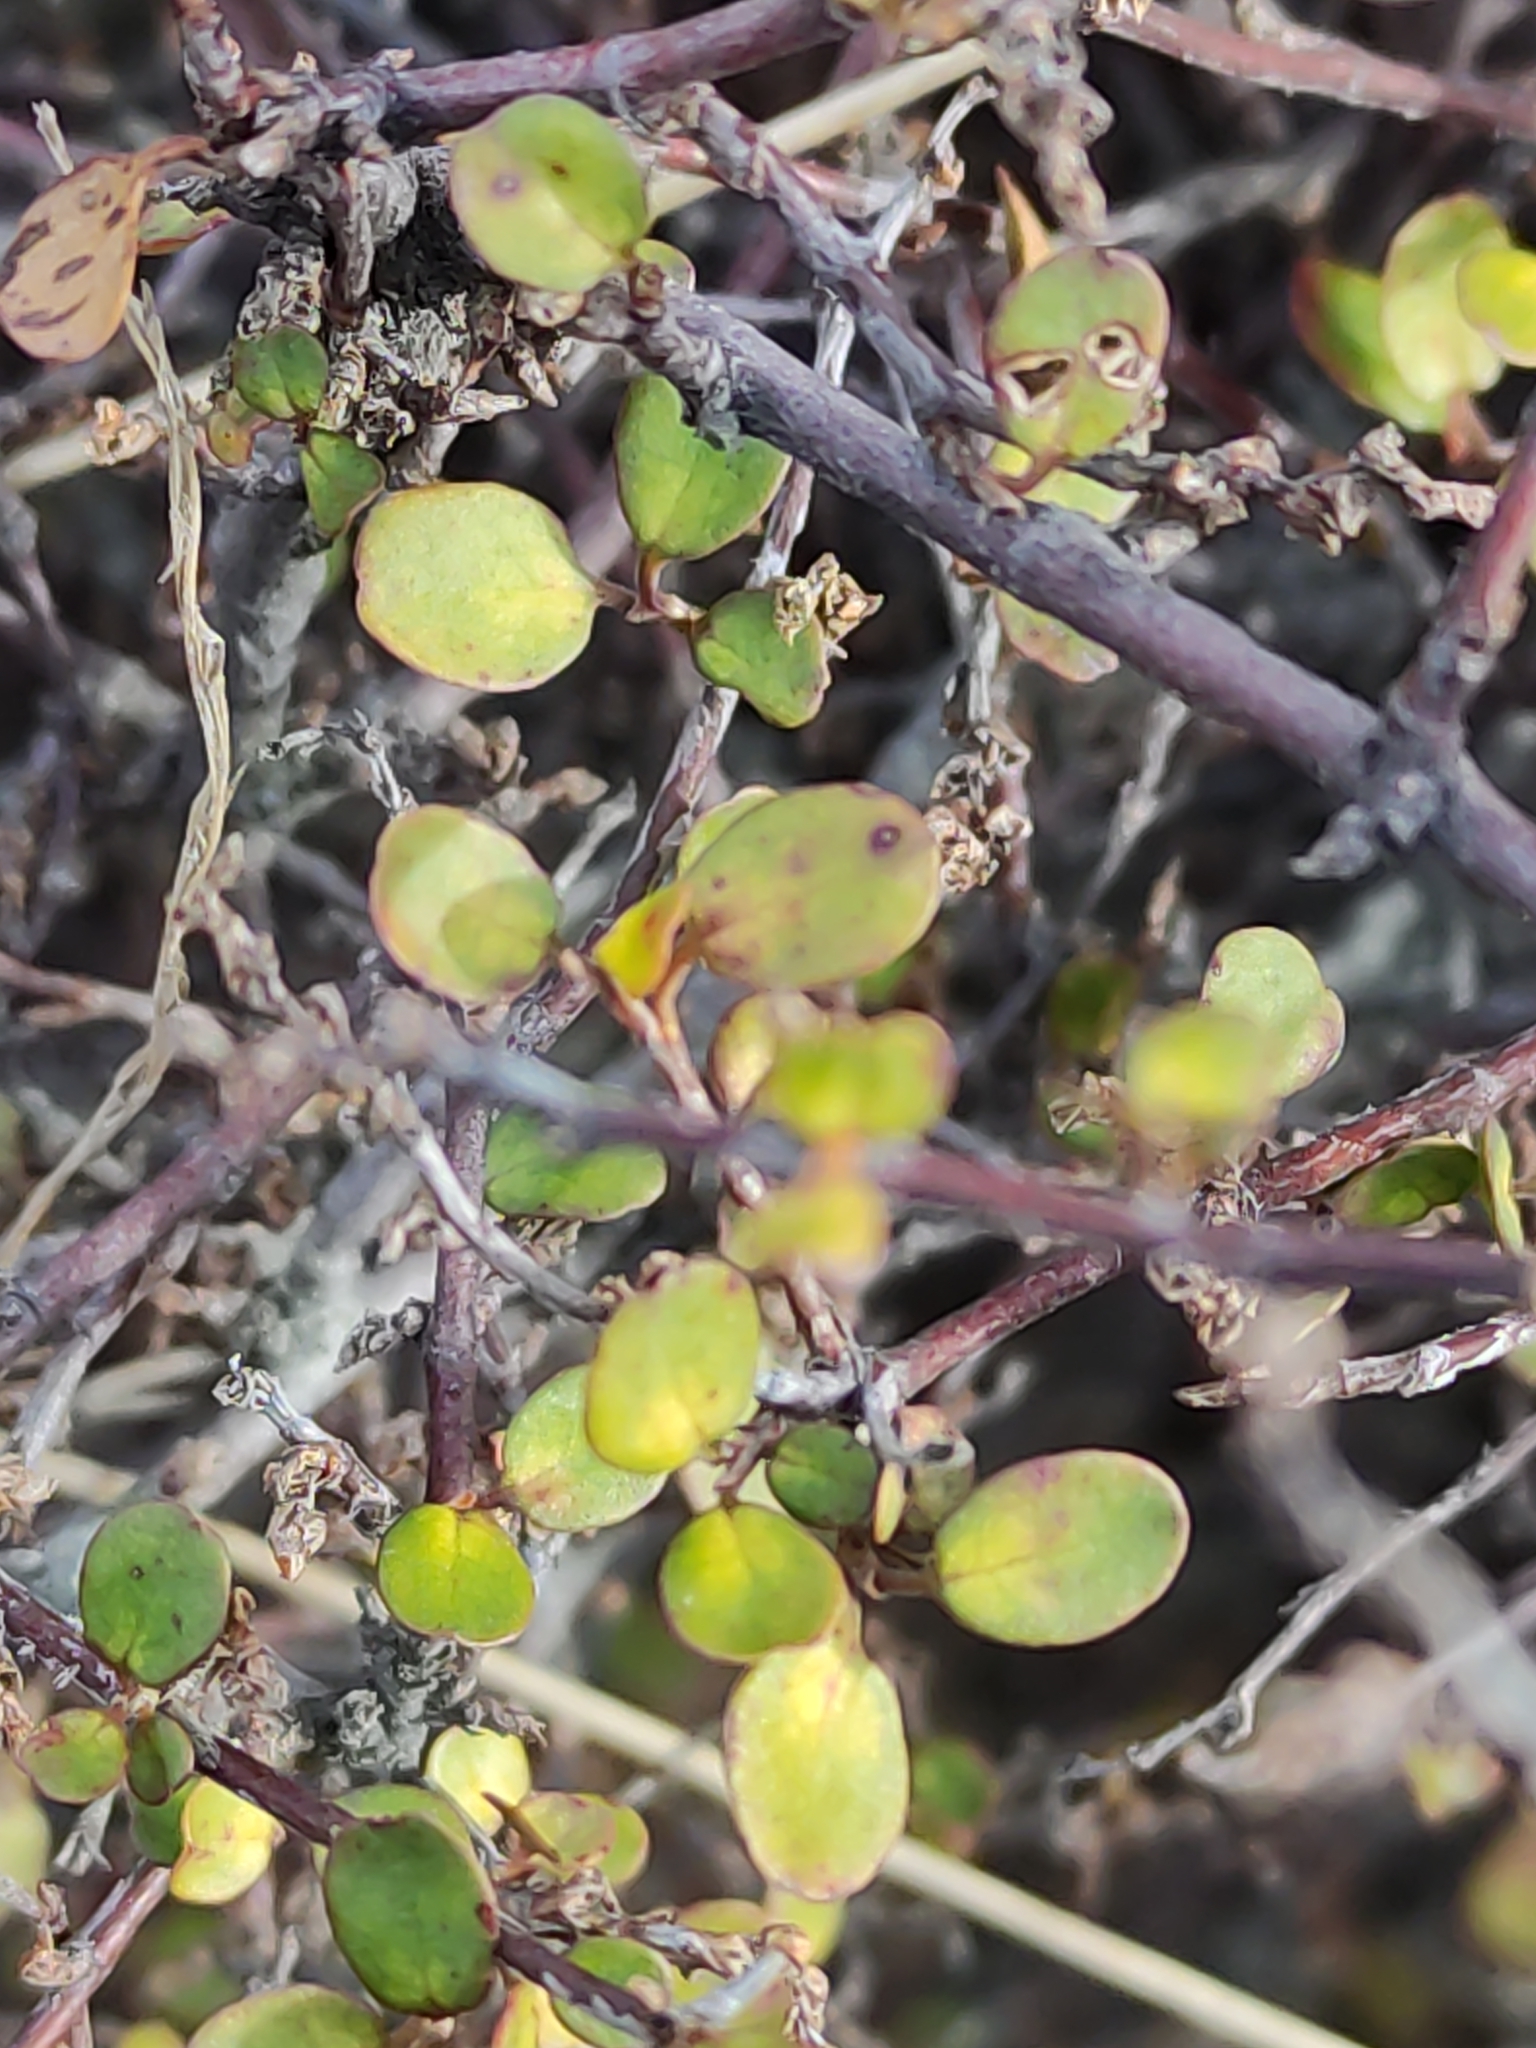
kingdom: Plantae
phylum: Tracheophyta
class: Magnoliopsida
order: Caryophyllales
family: Polygonaceae
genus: Muehlenbeckia
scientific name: Muehlenbeckia complexa
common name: Wireplant
